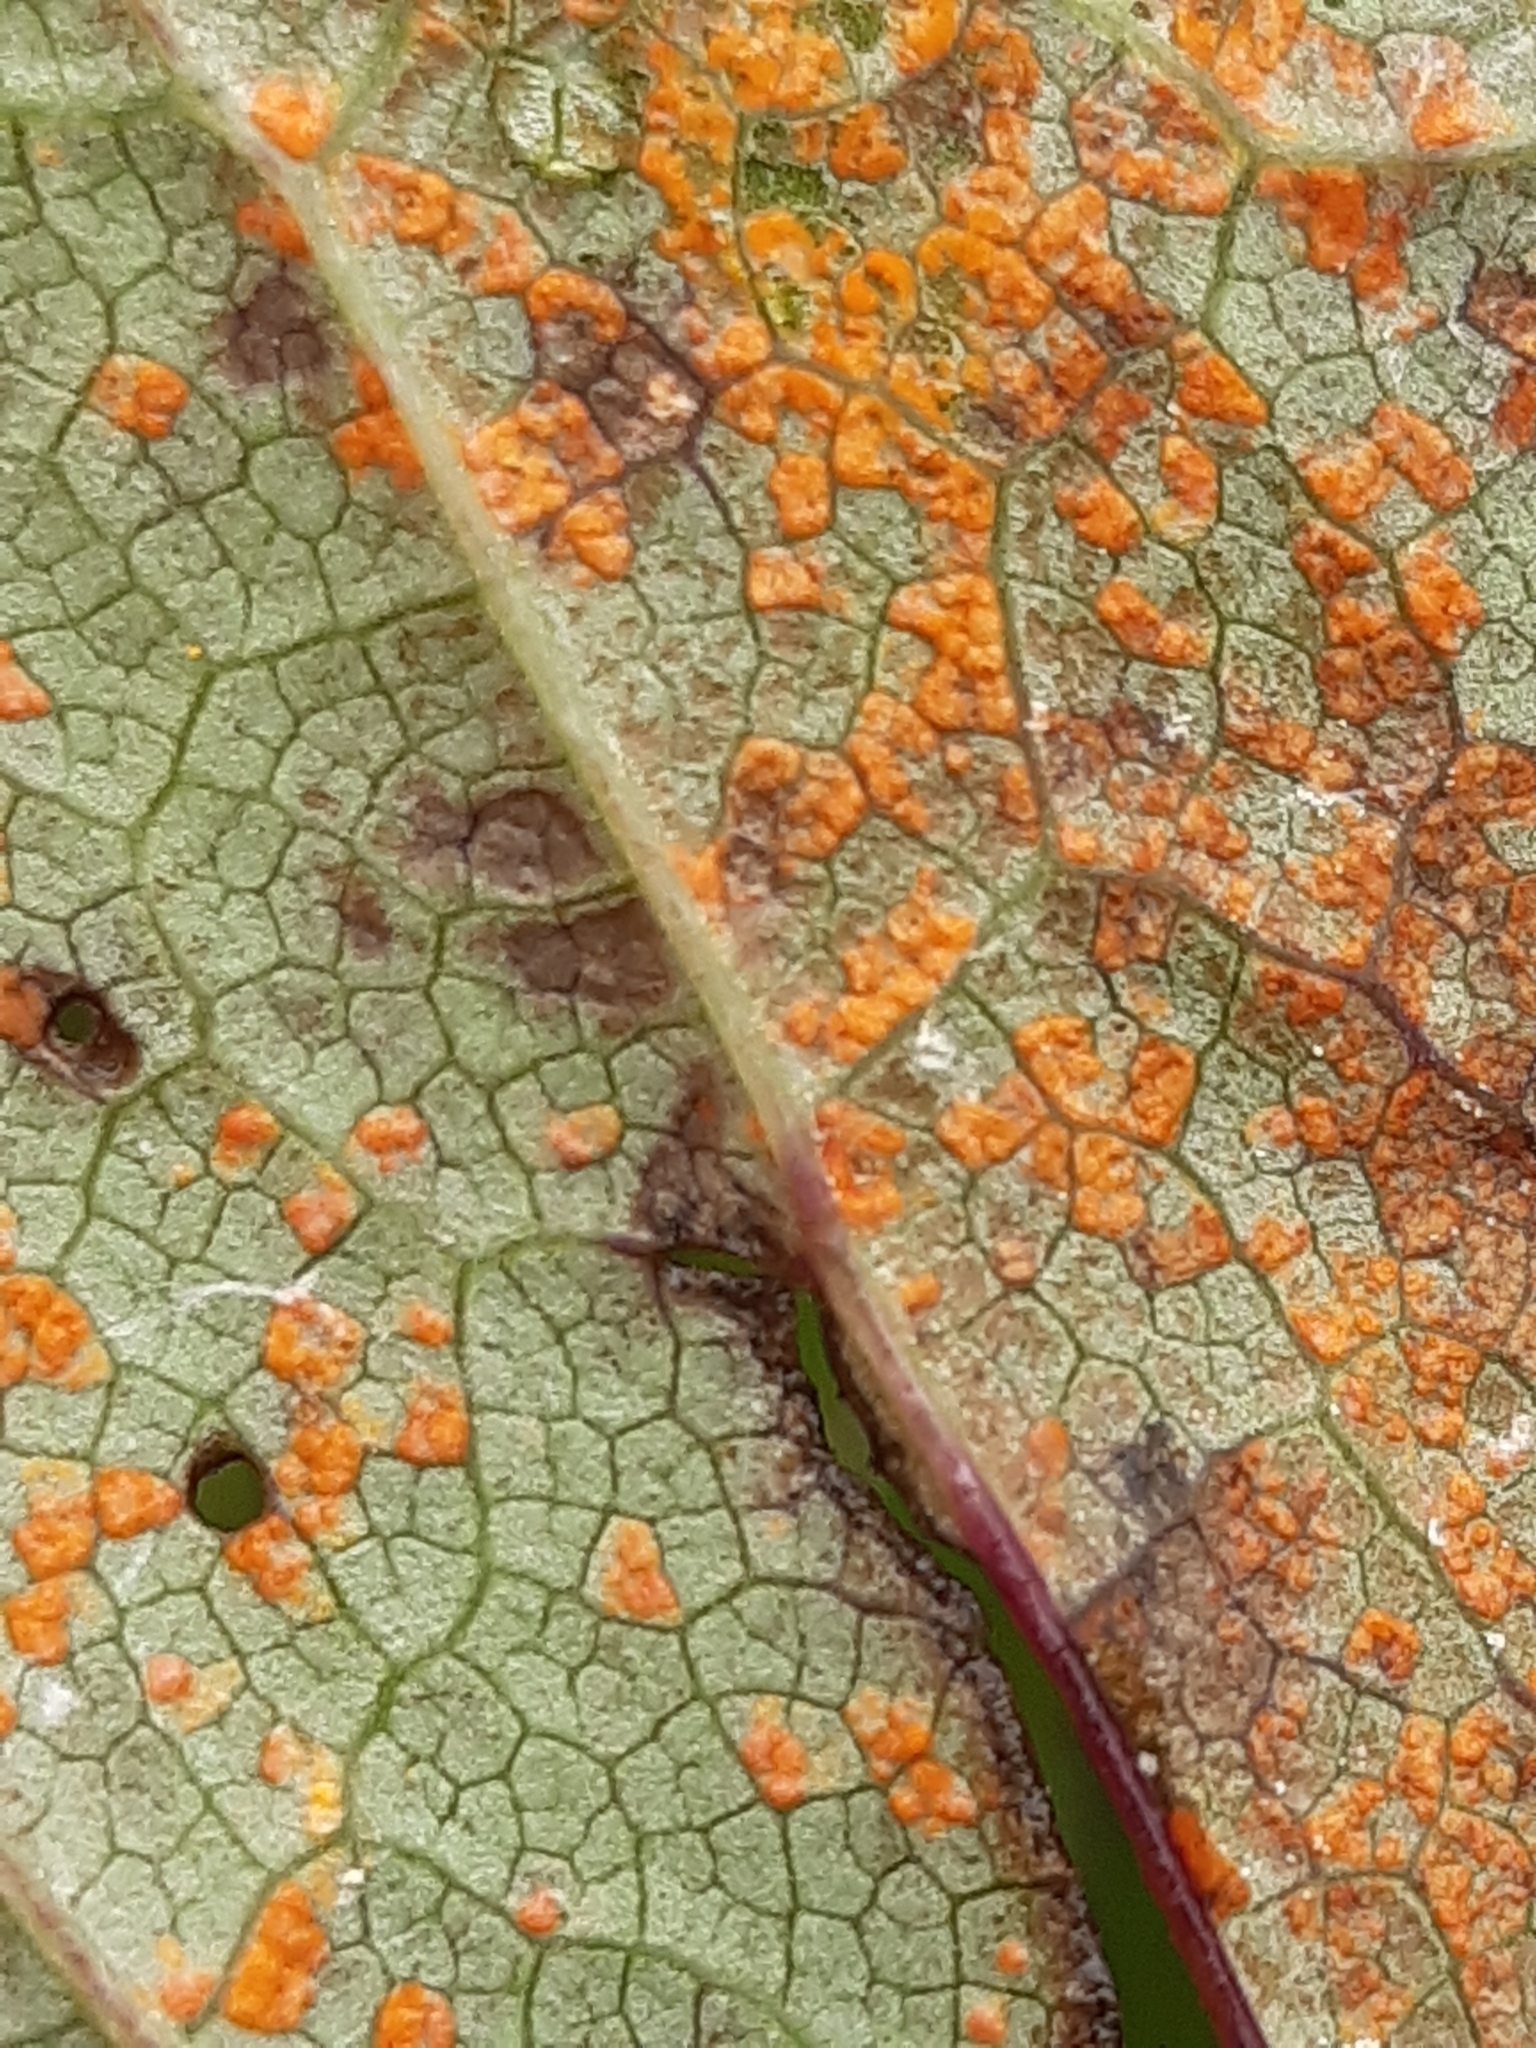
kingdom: Fungi
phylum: Basidiomycota
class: Pucciniomycetes
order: Pucciniales
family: Coleosporiaceae
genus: Coleosporium
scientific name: Coleosporium petasitis
